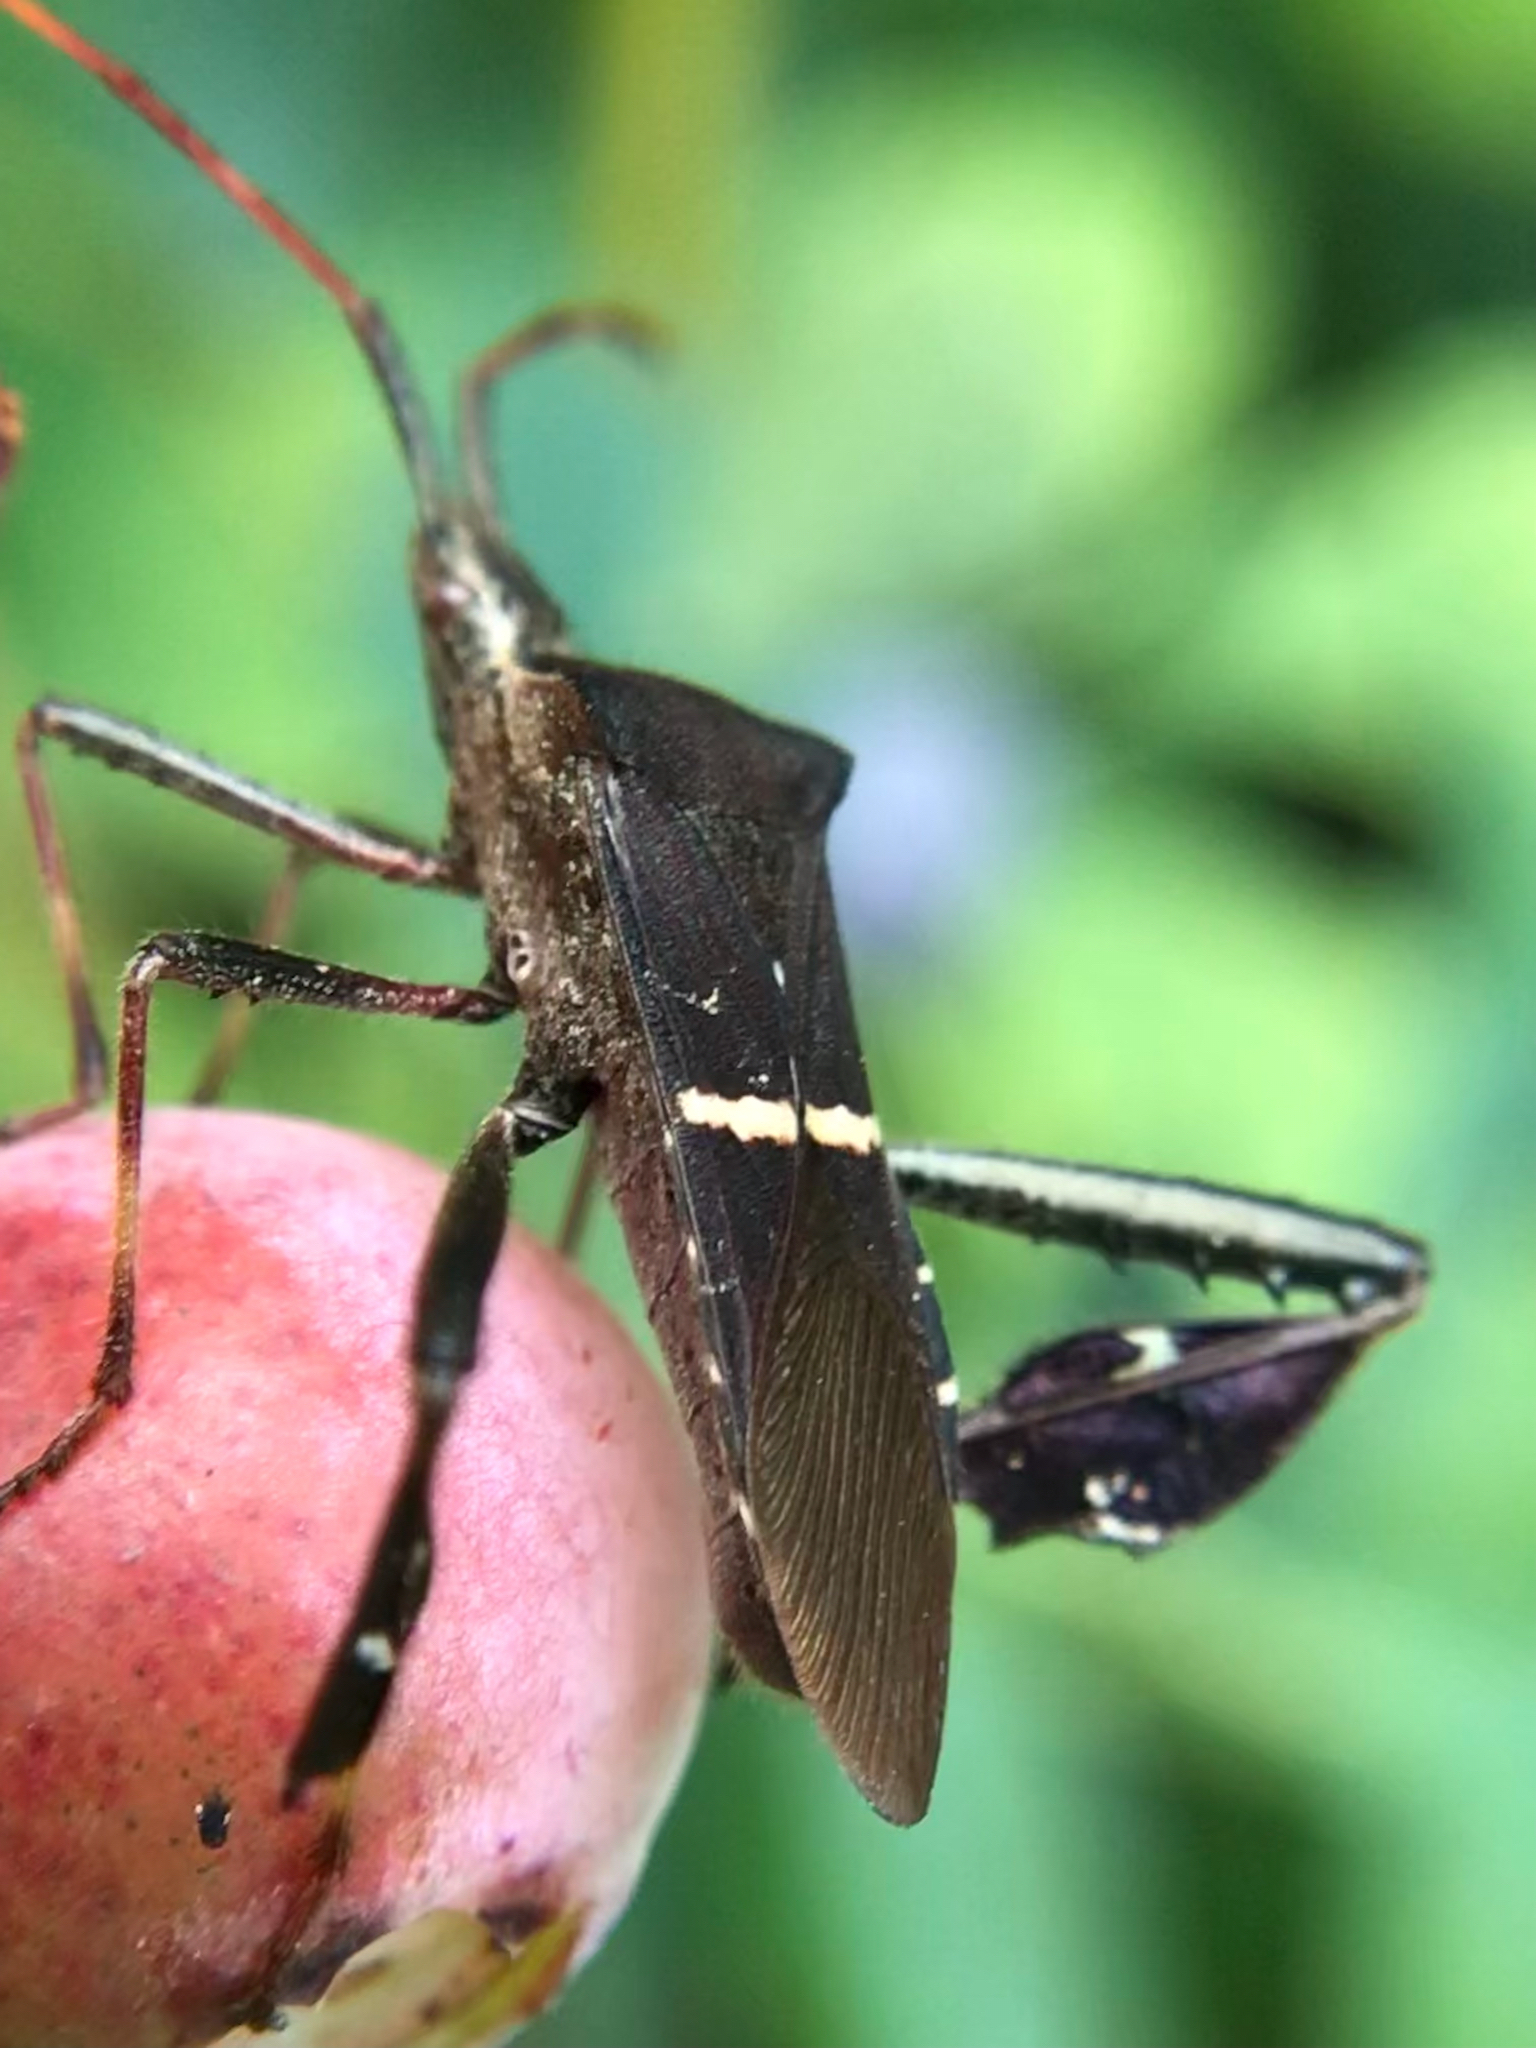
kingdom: Animalia
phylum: Arthropoda
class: Insecta
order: Hemiptera
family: Coreidae
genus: Leptoglossus
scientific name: Leptoglossus phyllopus
